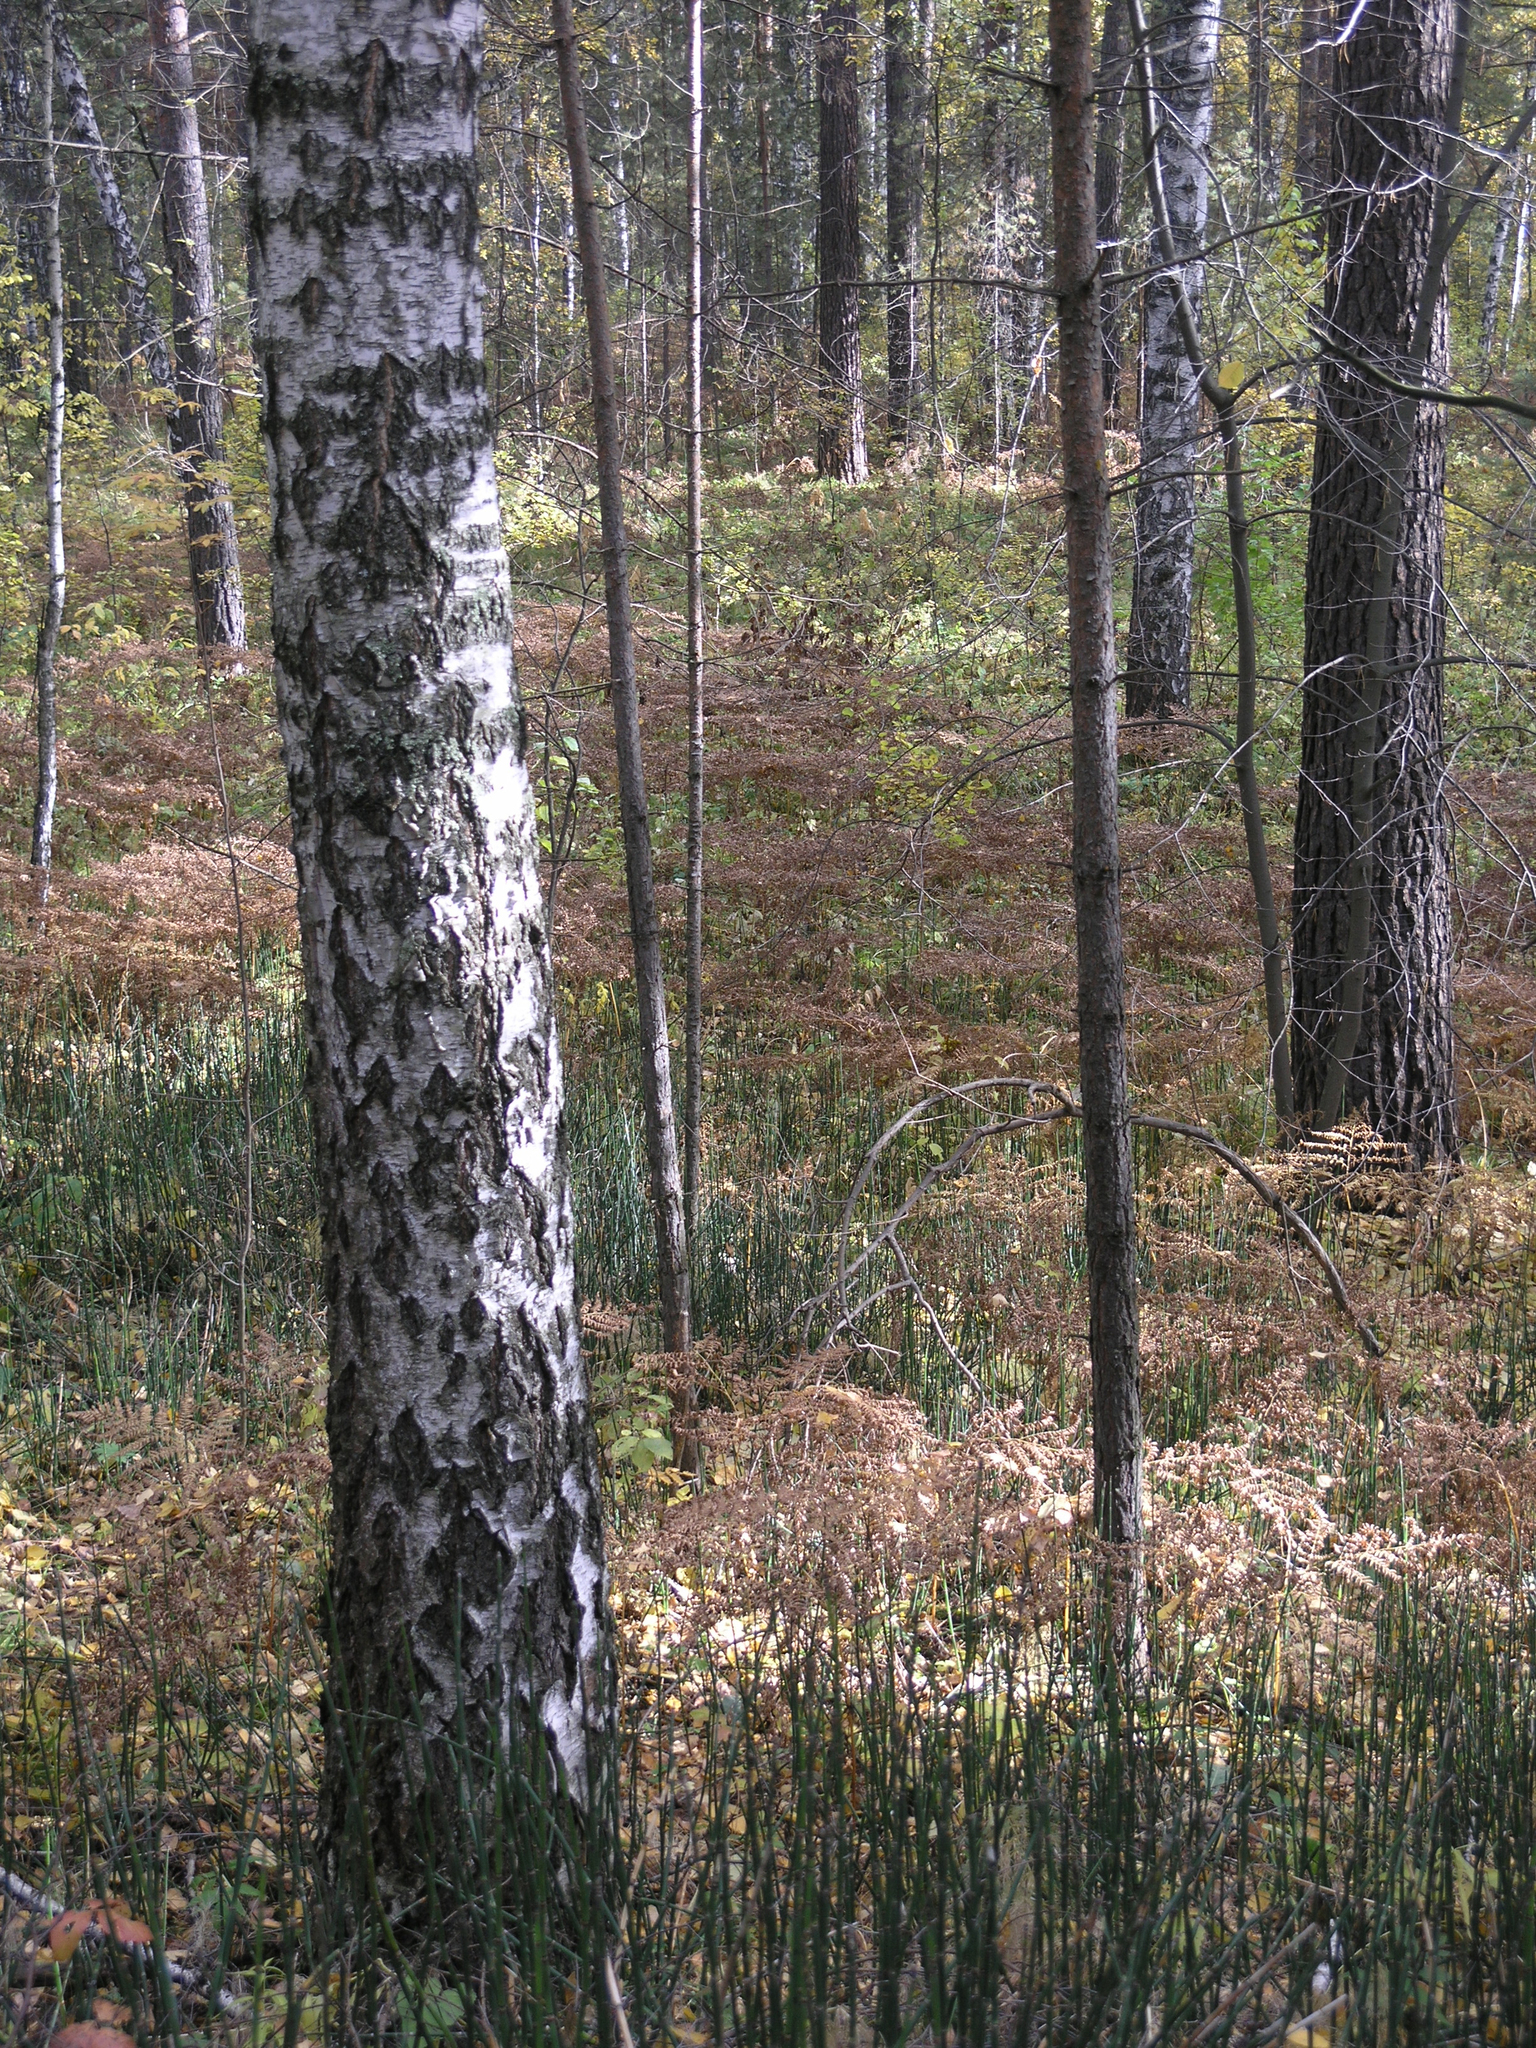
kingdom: Plantae
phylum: Tracheophyta
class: Polypodiopsida
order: Equisetales
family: Equisetaceae
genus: Equisetum
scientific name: Equisetum hyemale
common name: Rough horsetail
